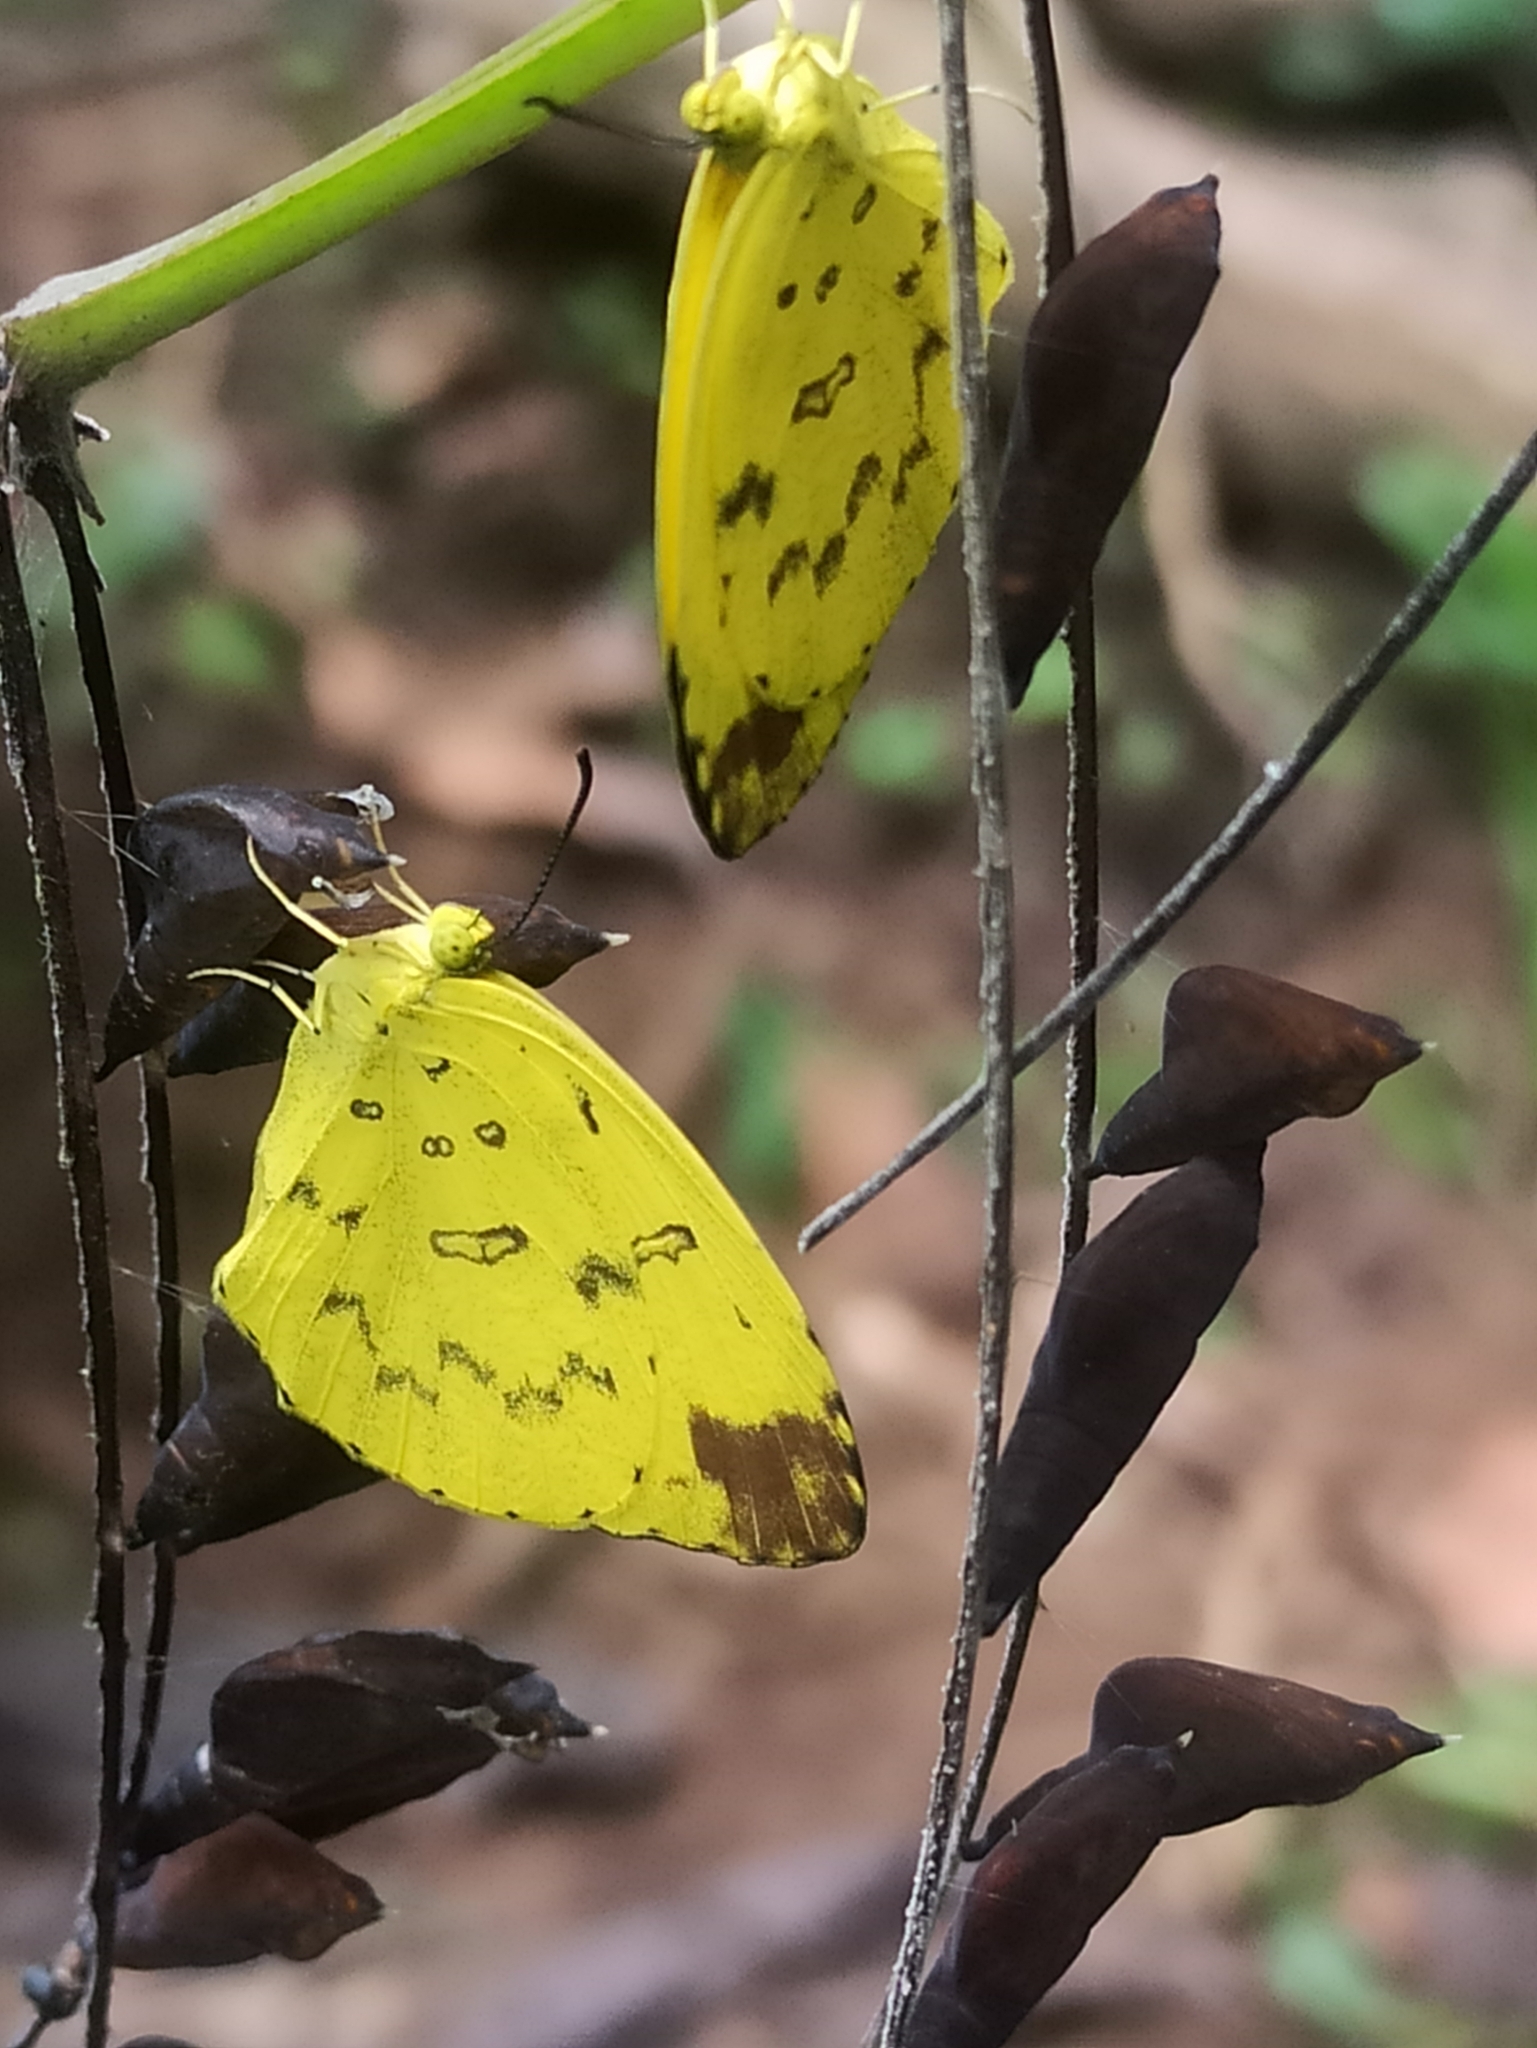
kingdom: Animalia
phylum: Arthropoda
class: Insecta
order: Lepidoptera
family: Pieridae
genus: Eurema
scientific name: Eurema blanda
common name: Three-spot grass yellow
